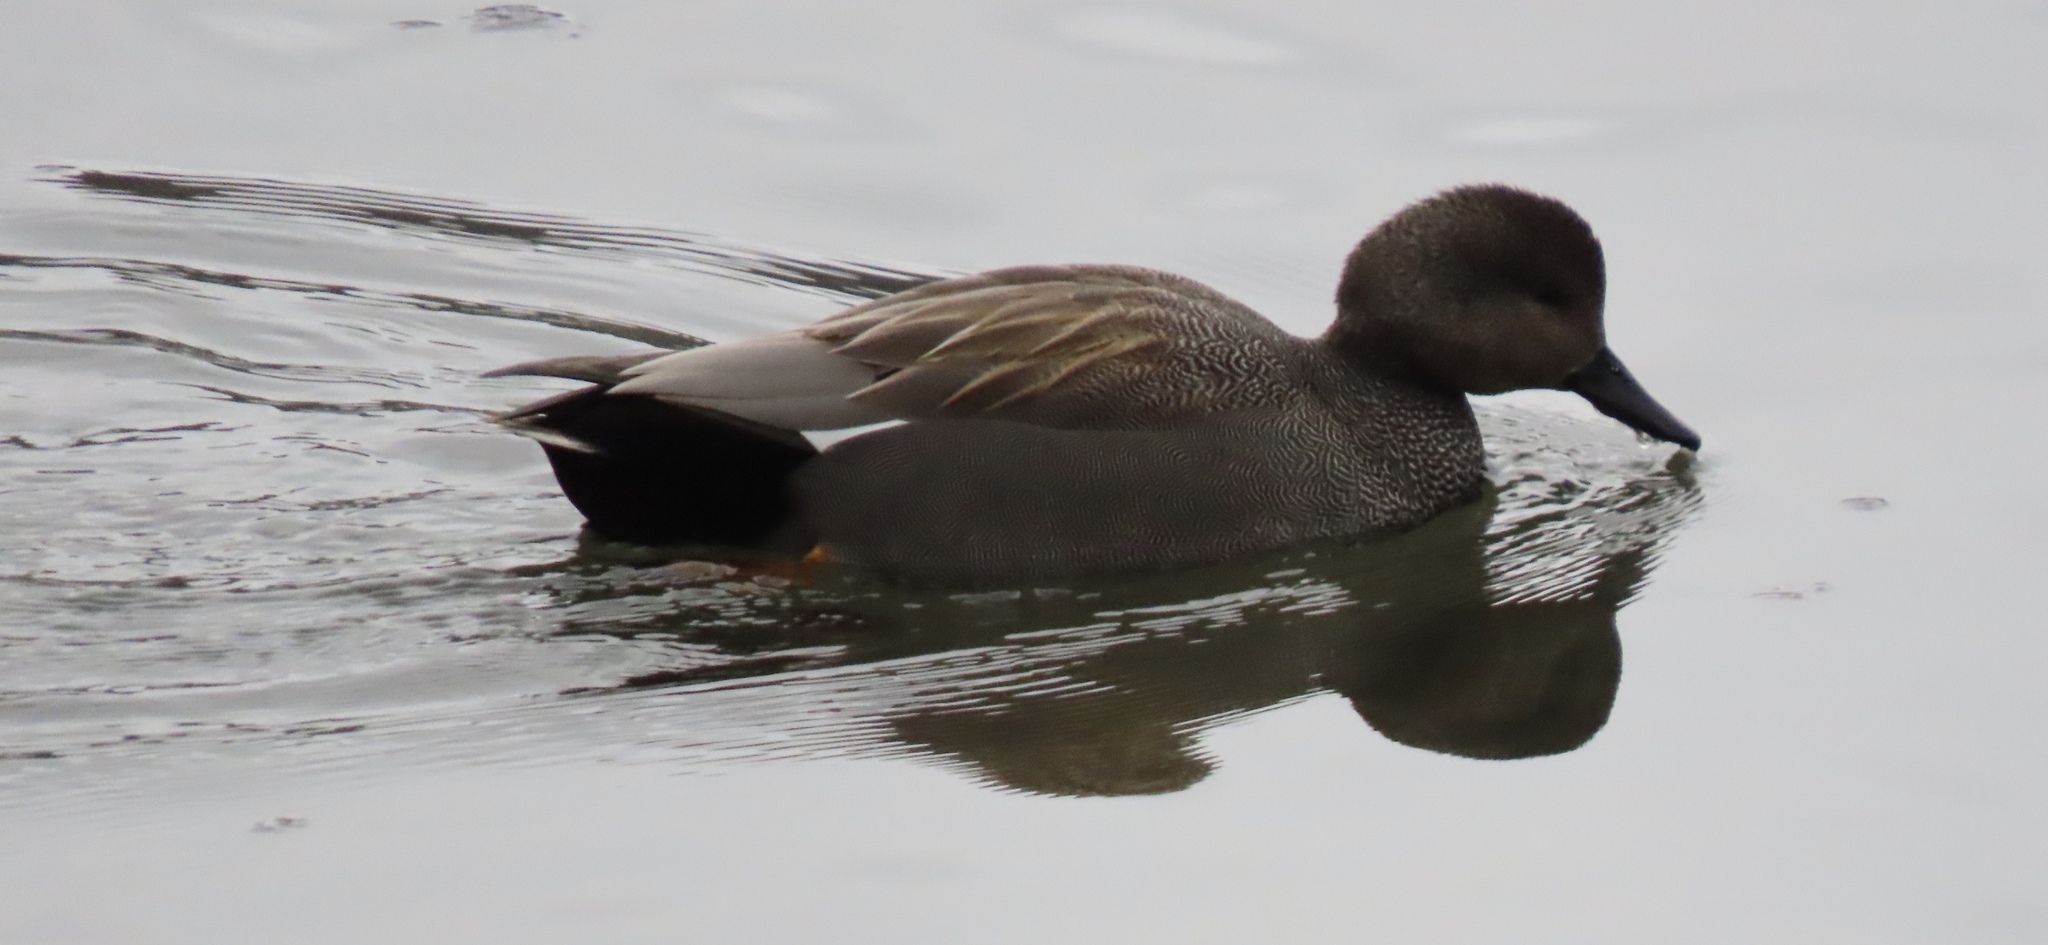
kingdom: Animalia
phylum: Chordata
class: Aves
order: Anseriformes
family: Anatidae
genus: Mareca
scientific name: Mareca strepera
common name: Gadwall
